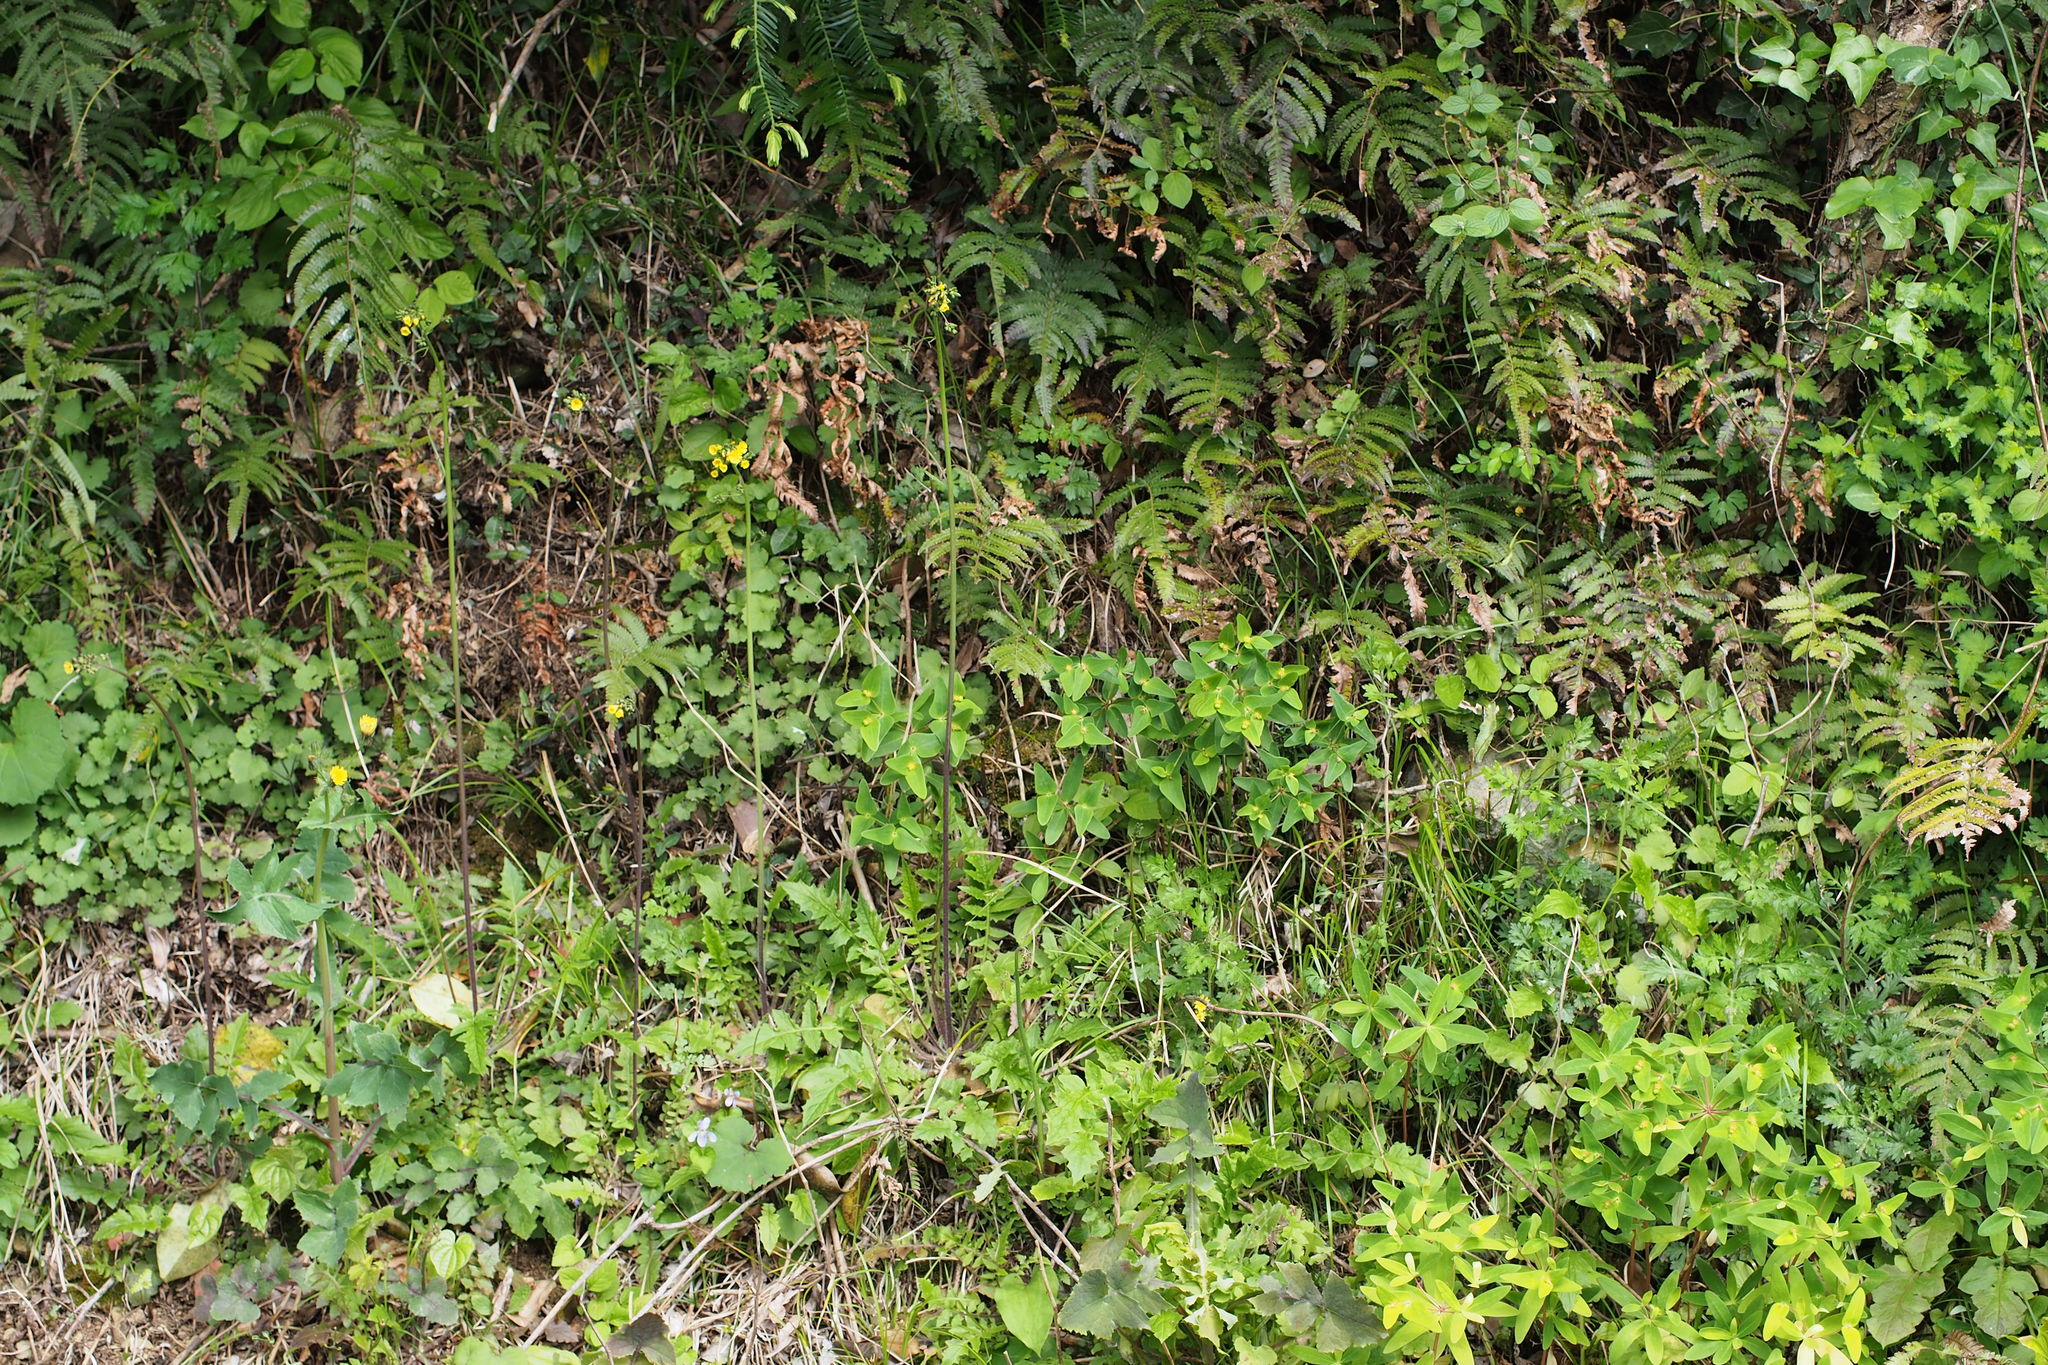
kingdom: Plantae
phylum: Tracheophyta
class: Magnoliopsida
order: Asterales
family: Asteraceae
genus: Youngia
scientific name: Youngia japonica
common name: Oriental false hawksbeard
